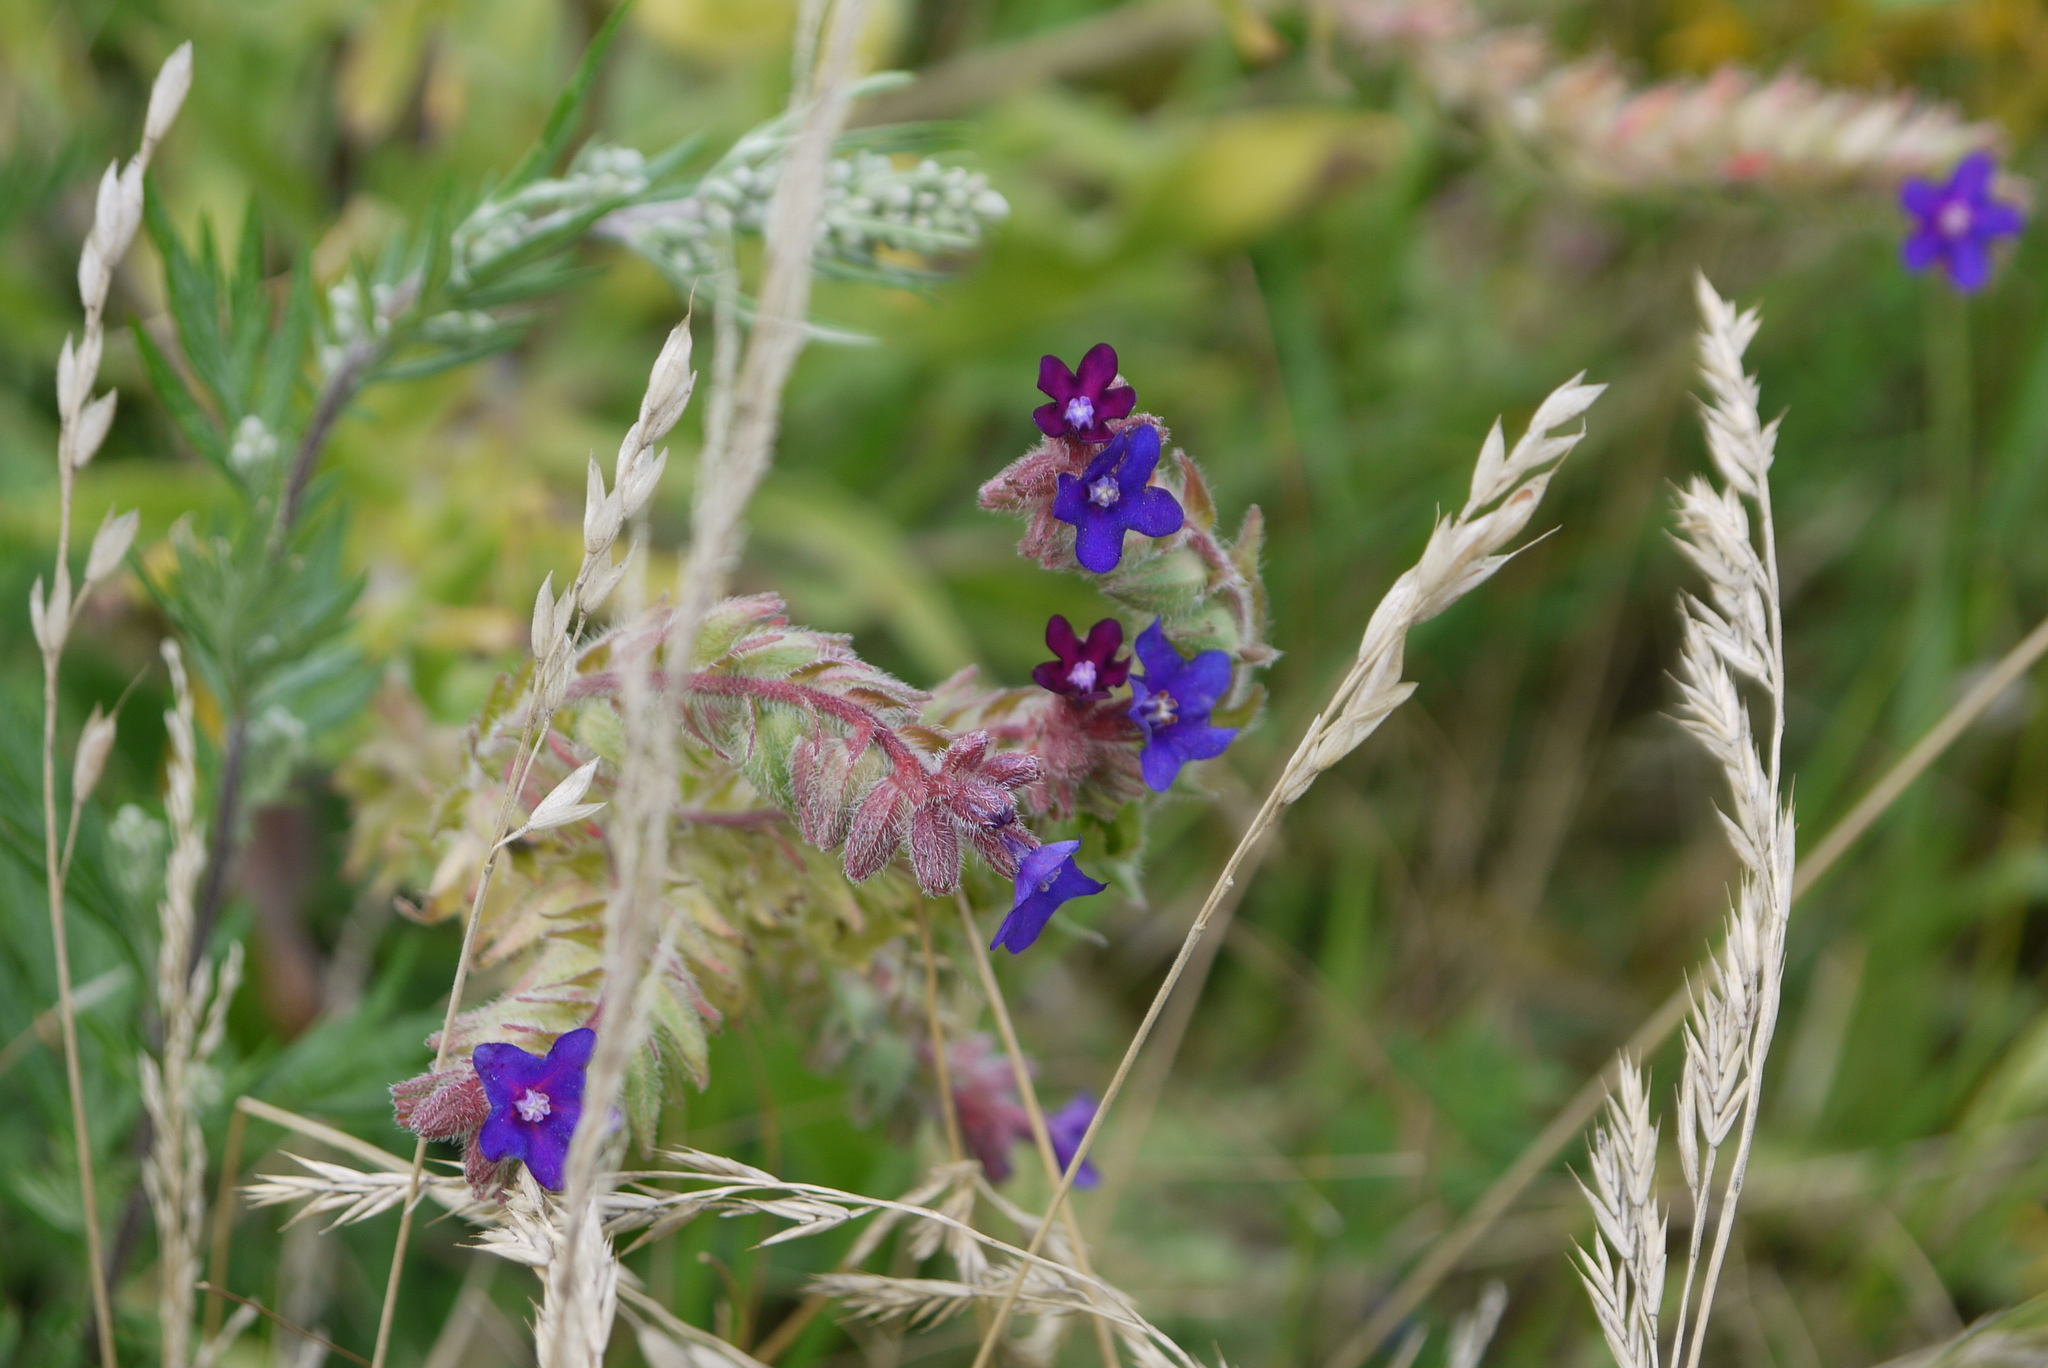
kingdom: Plantae
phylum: Tracheophyta
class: Magnoliopsida
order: Boraginales
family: Boraginaceae
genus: Anchusa
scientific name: Anchusa officinalis
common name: Alkanet
